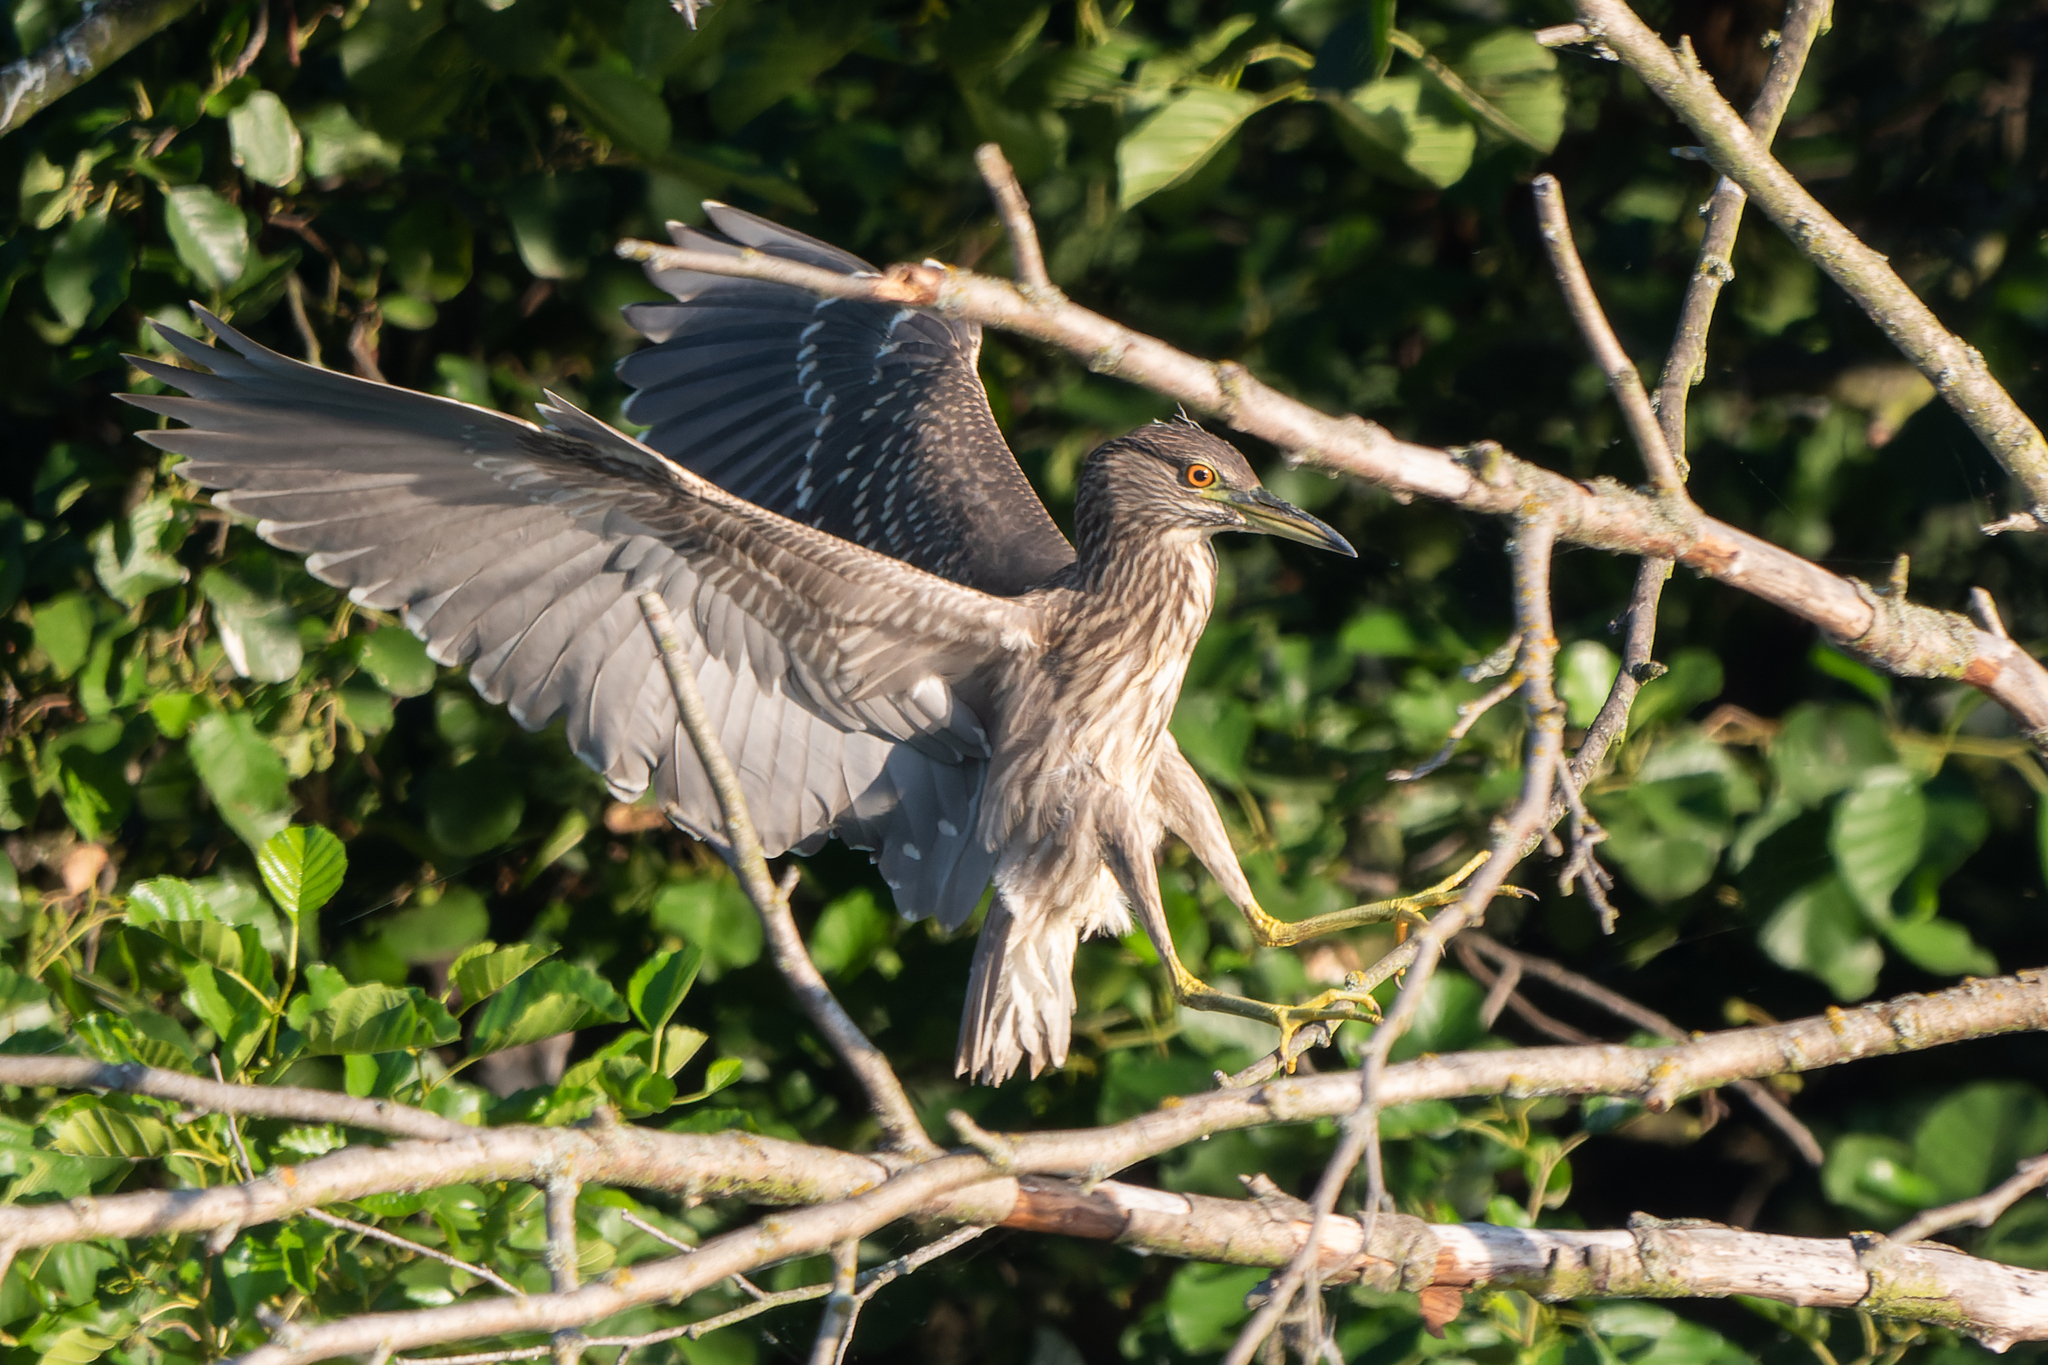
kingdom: Animalia
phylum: Chordata
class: Aves
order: Pelecaniformes
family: Ardeidae
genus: Nycticorax
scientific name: Nycticorax nycticorax
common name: Black-crowned night heron
